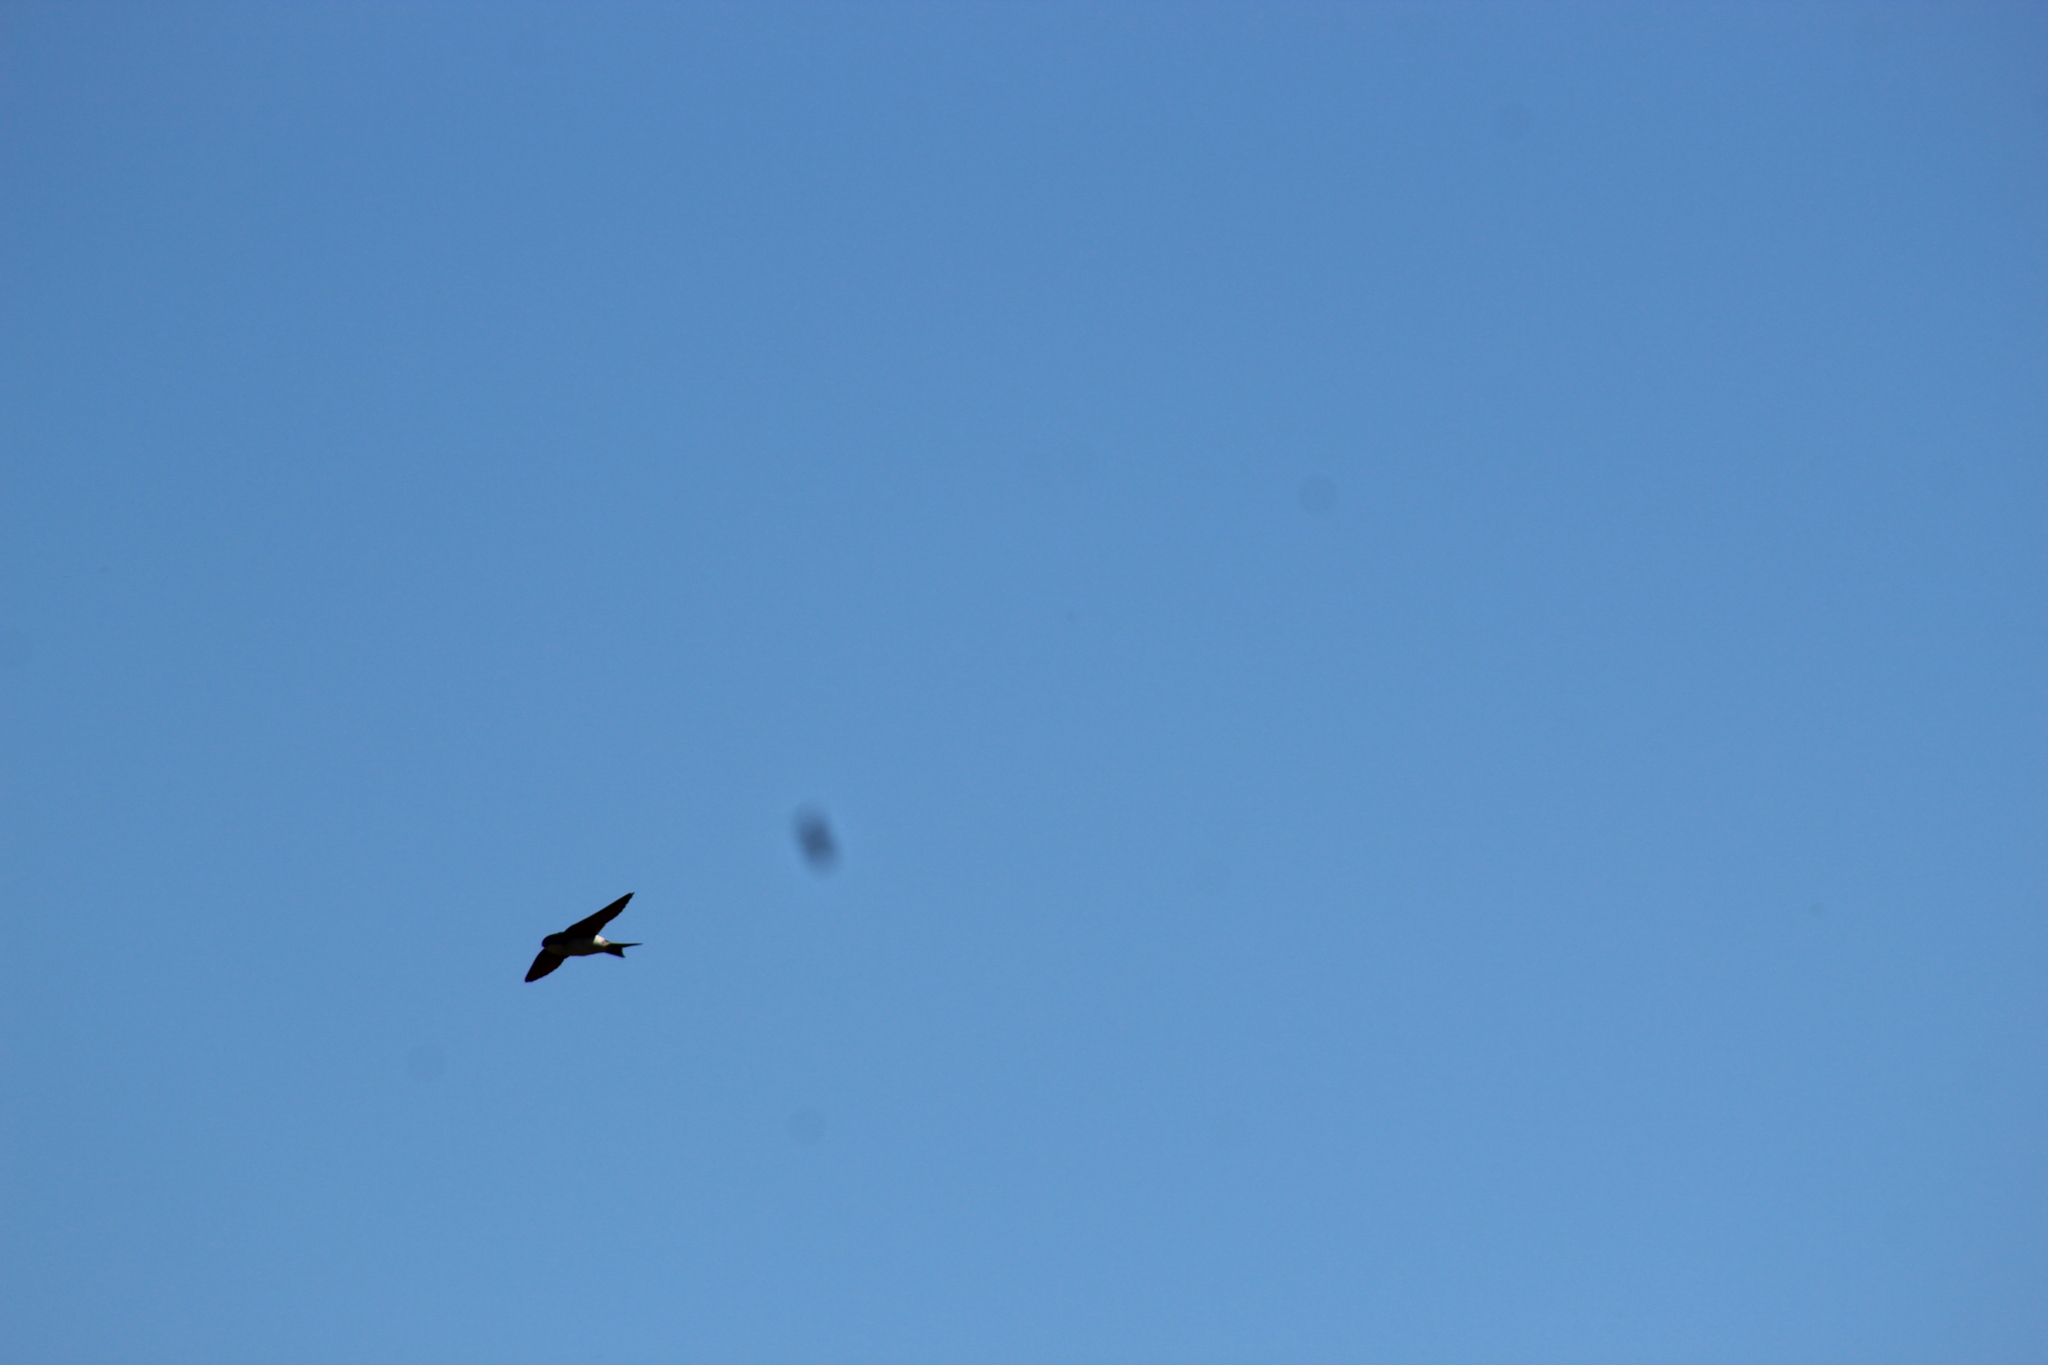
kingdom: Animalia
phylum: Chordata
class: Aves
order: Passeriformes
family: Hirundinidae
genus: Delichon
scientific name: Delichon urbicum
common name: Common house martin
